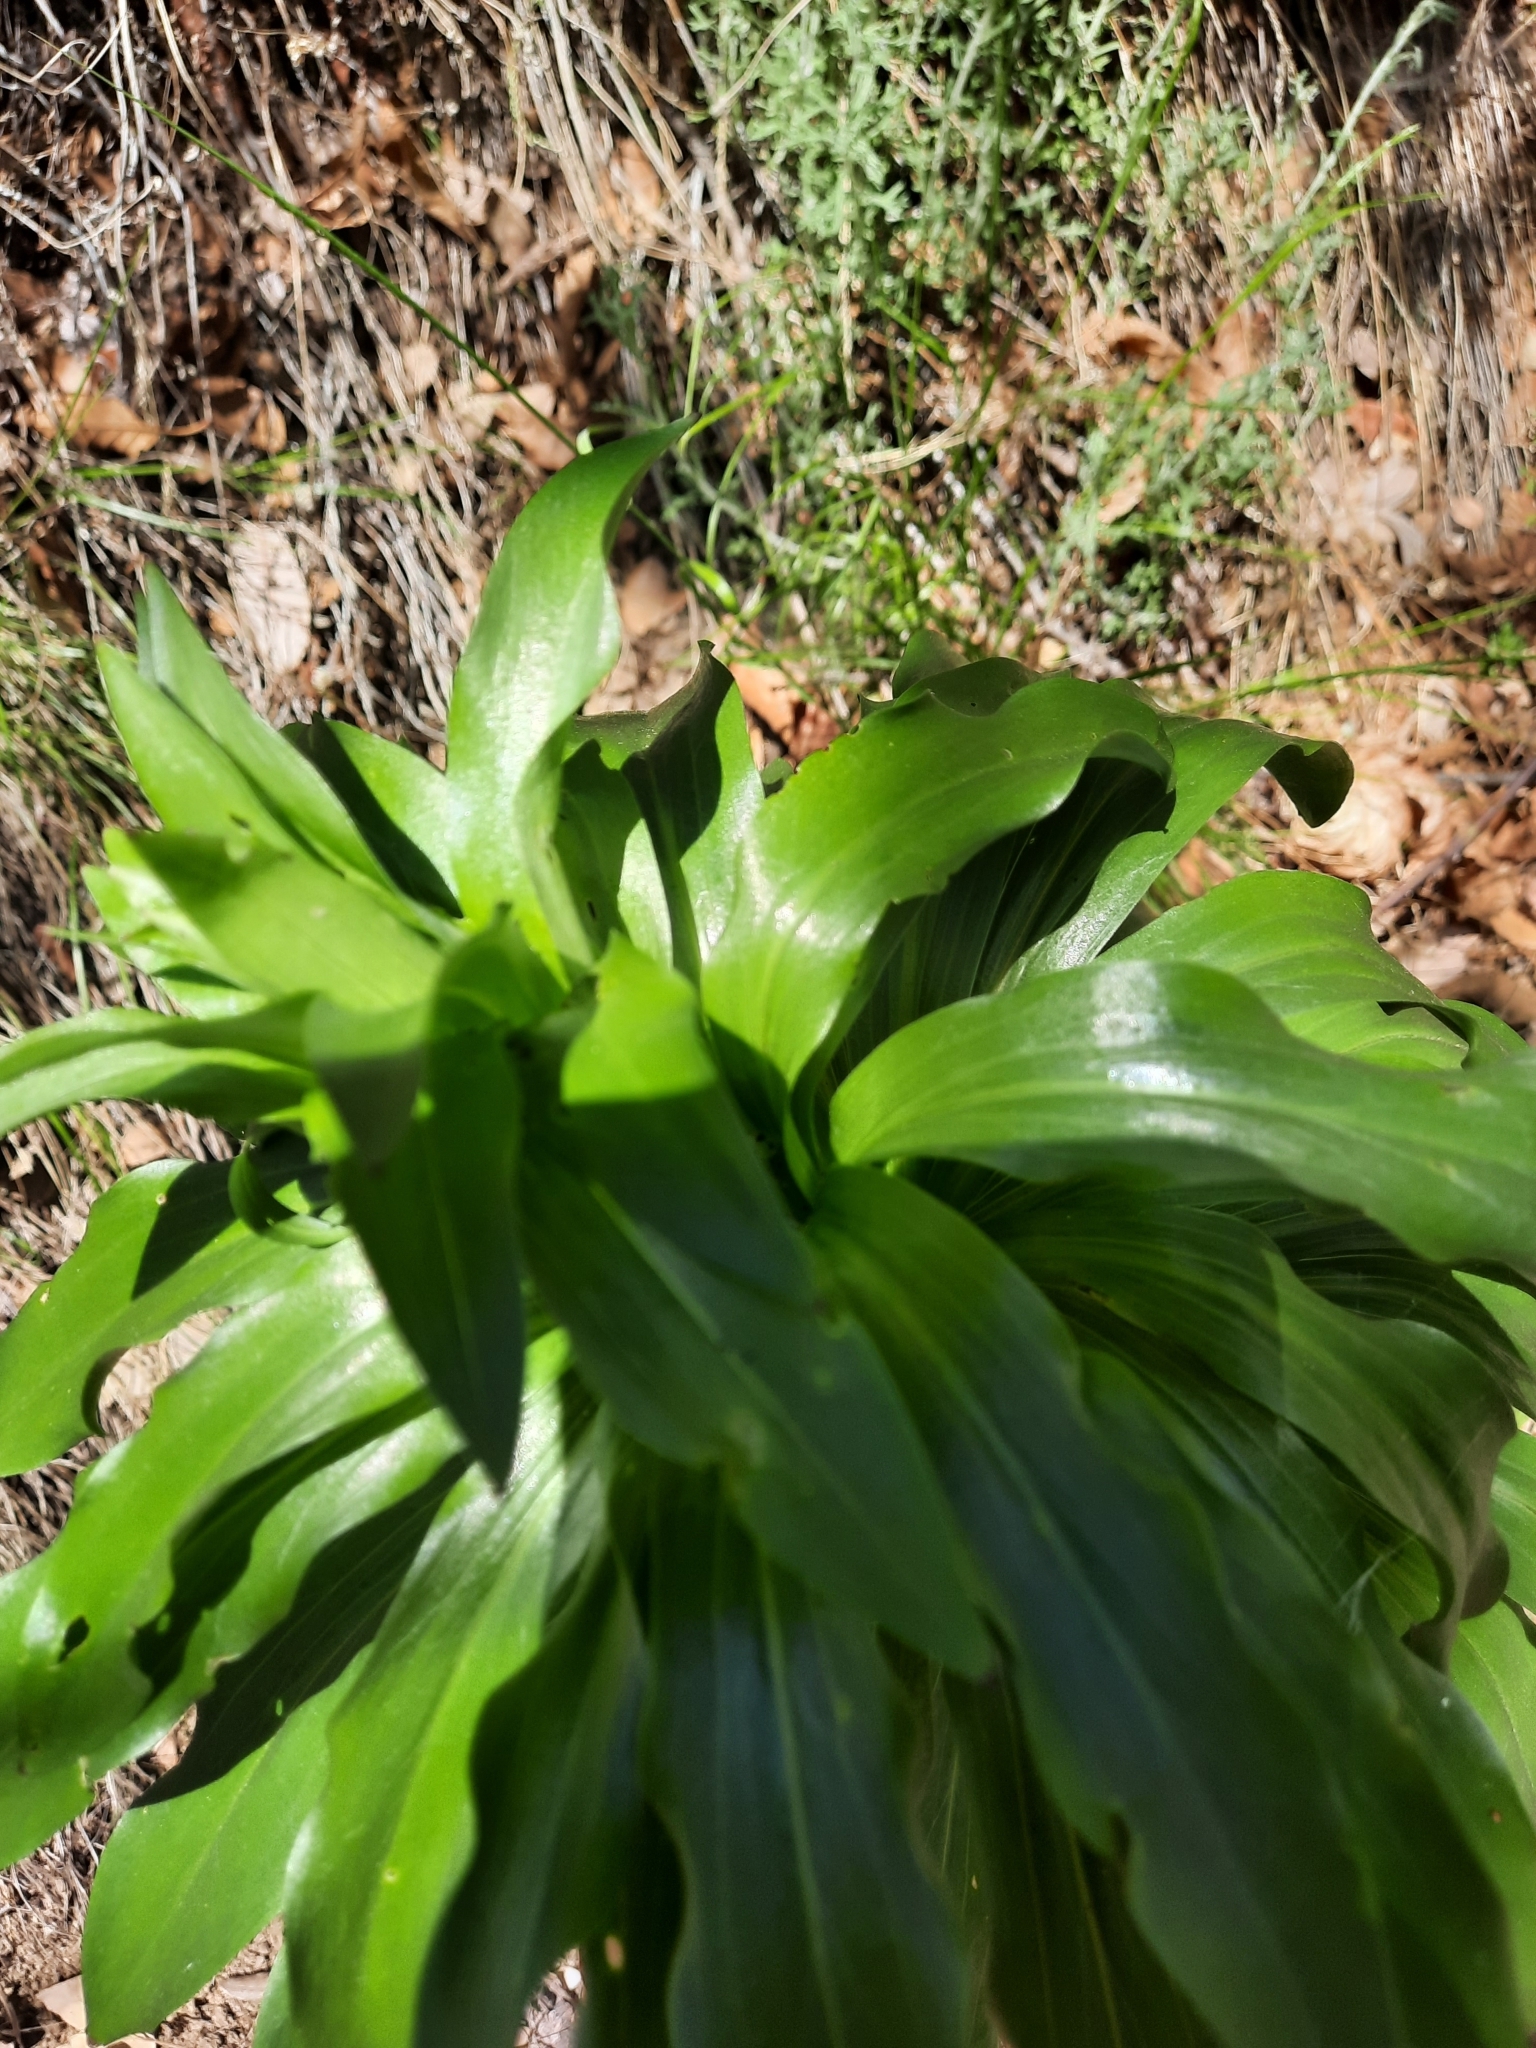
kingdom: Plantae
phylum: Tracheophyta
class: Liliopsida
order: Liliales
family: Liliaceae
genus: Lilium
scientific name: Lilium humboldtii
